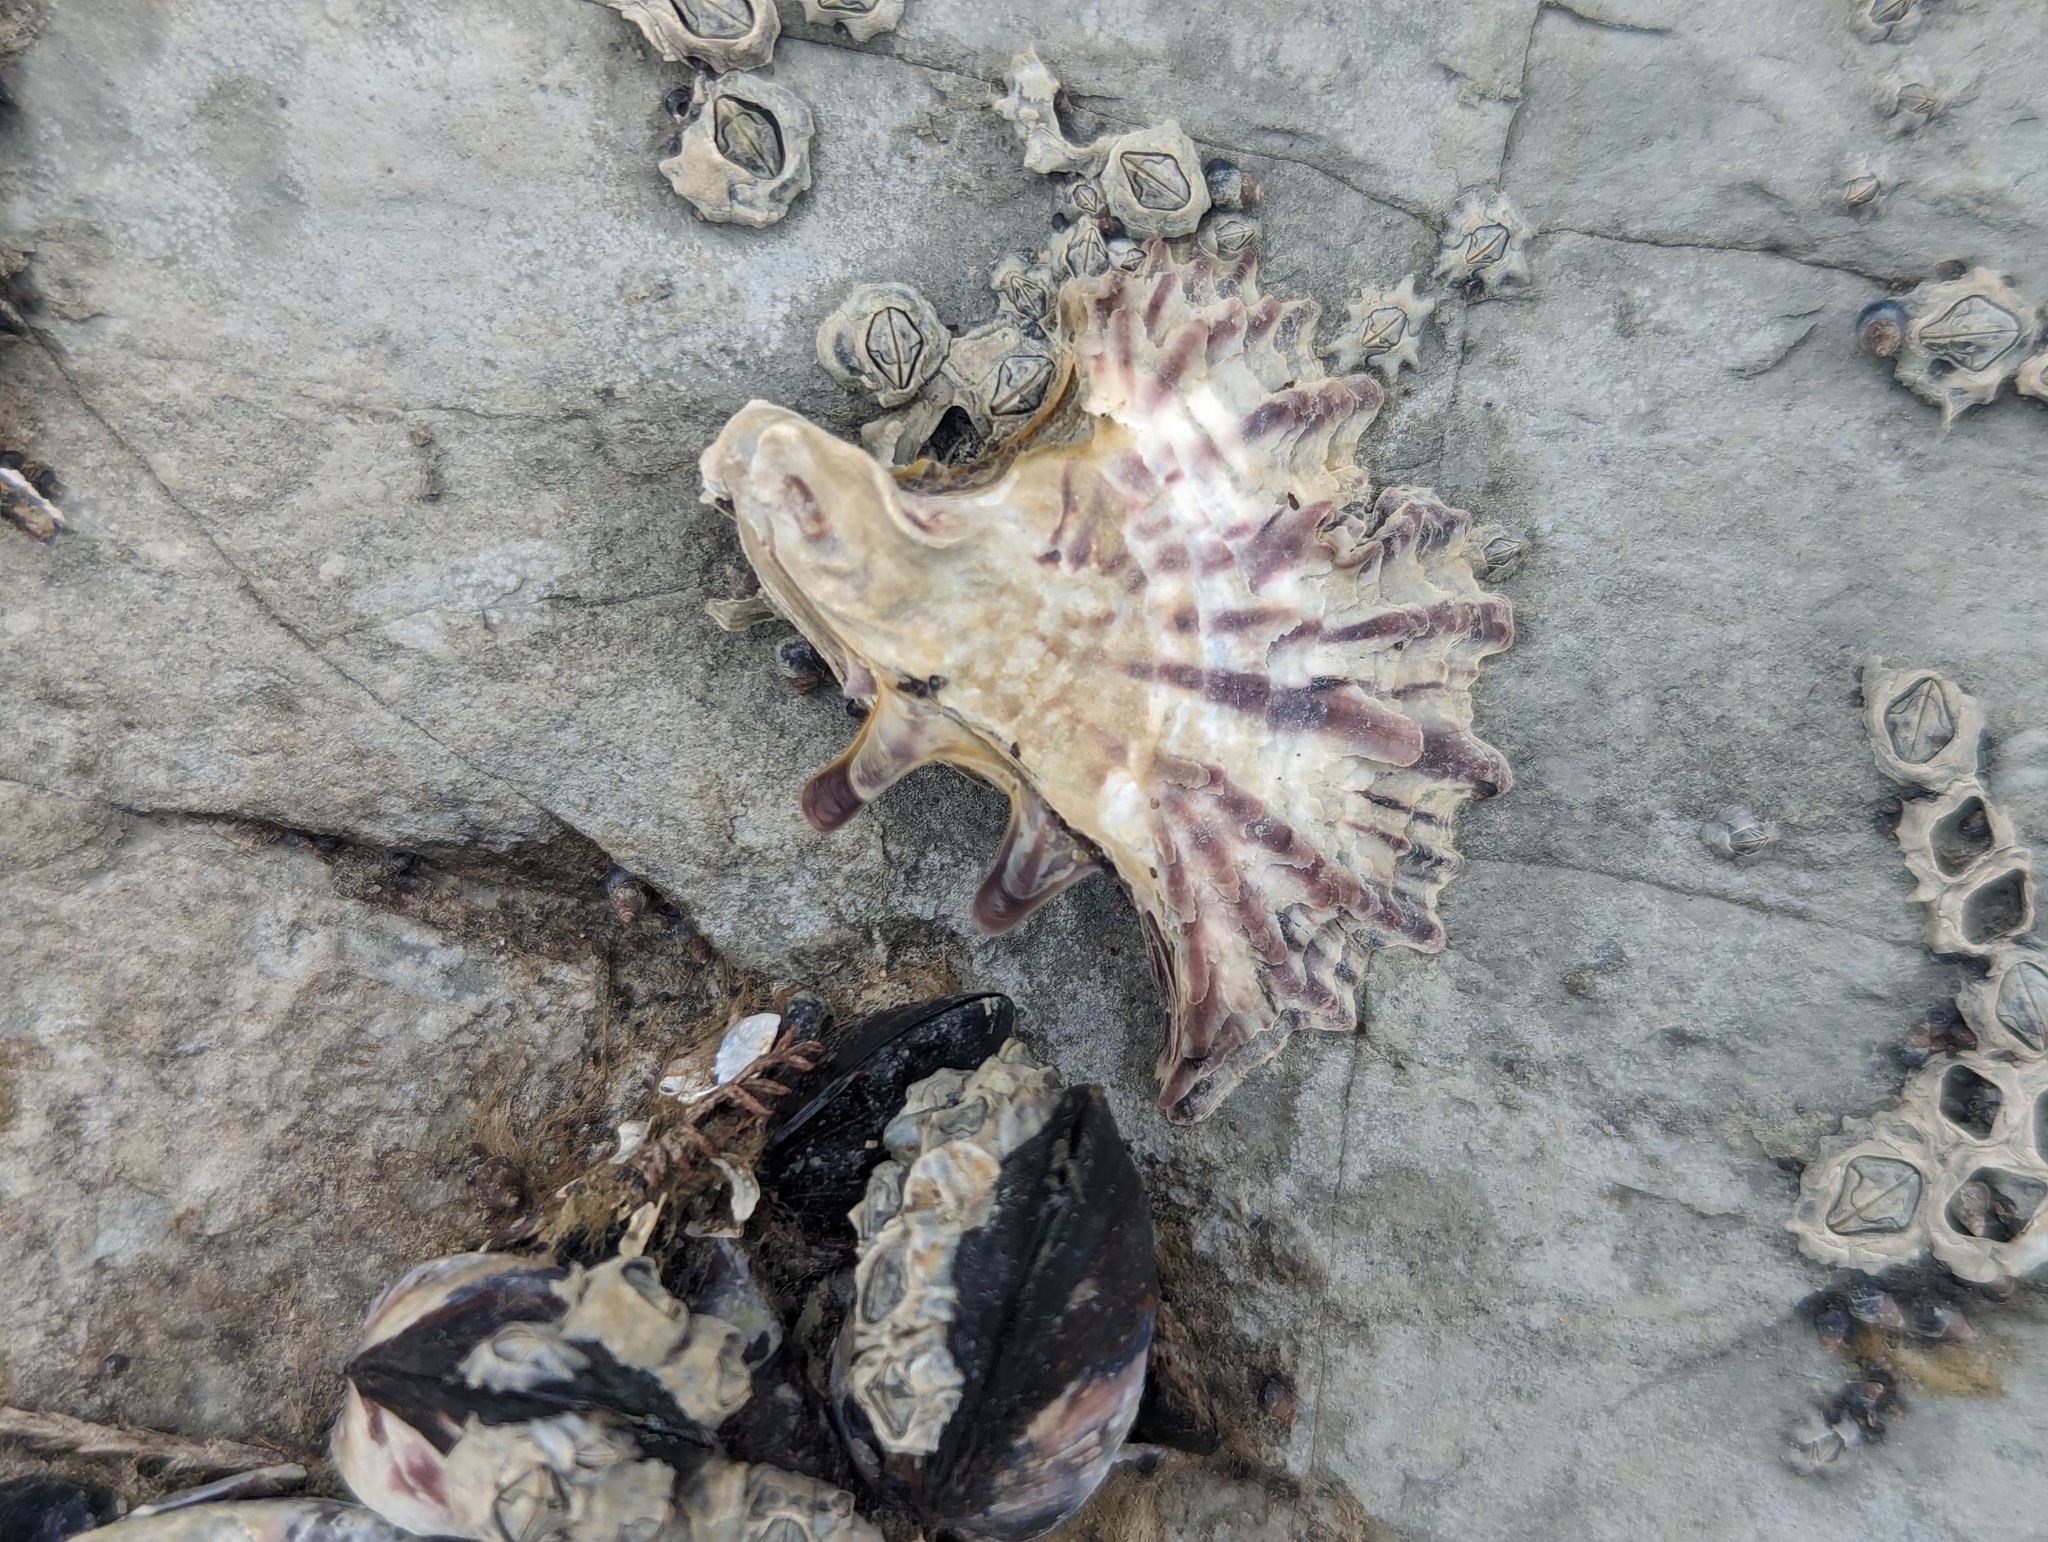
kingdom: Animalia
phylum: Mollusca
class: Bivalvia
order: Ostreida
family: Ostreidae
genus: Magallana
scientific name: Magallana gigas
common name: Pacific oyster
